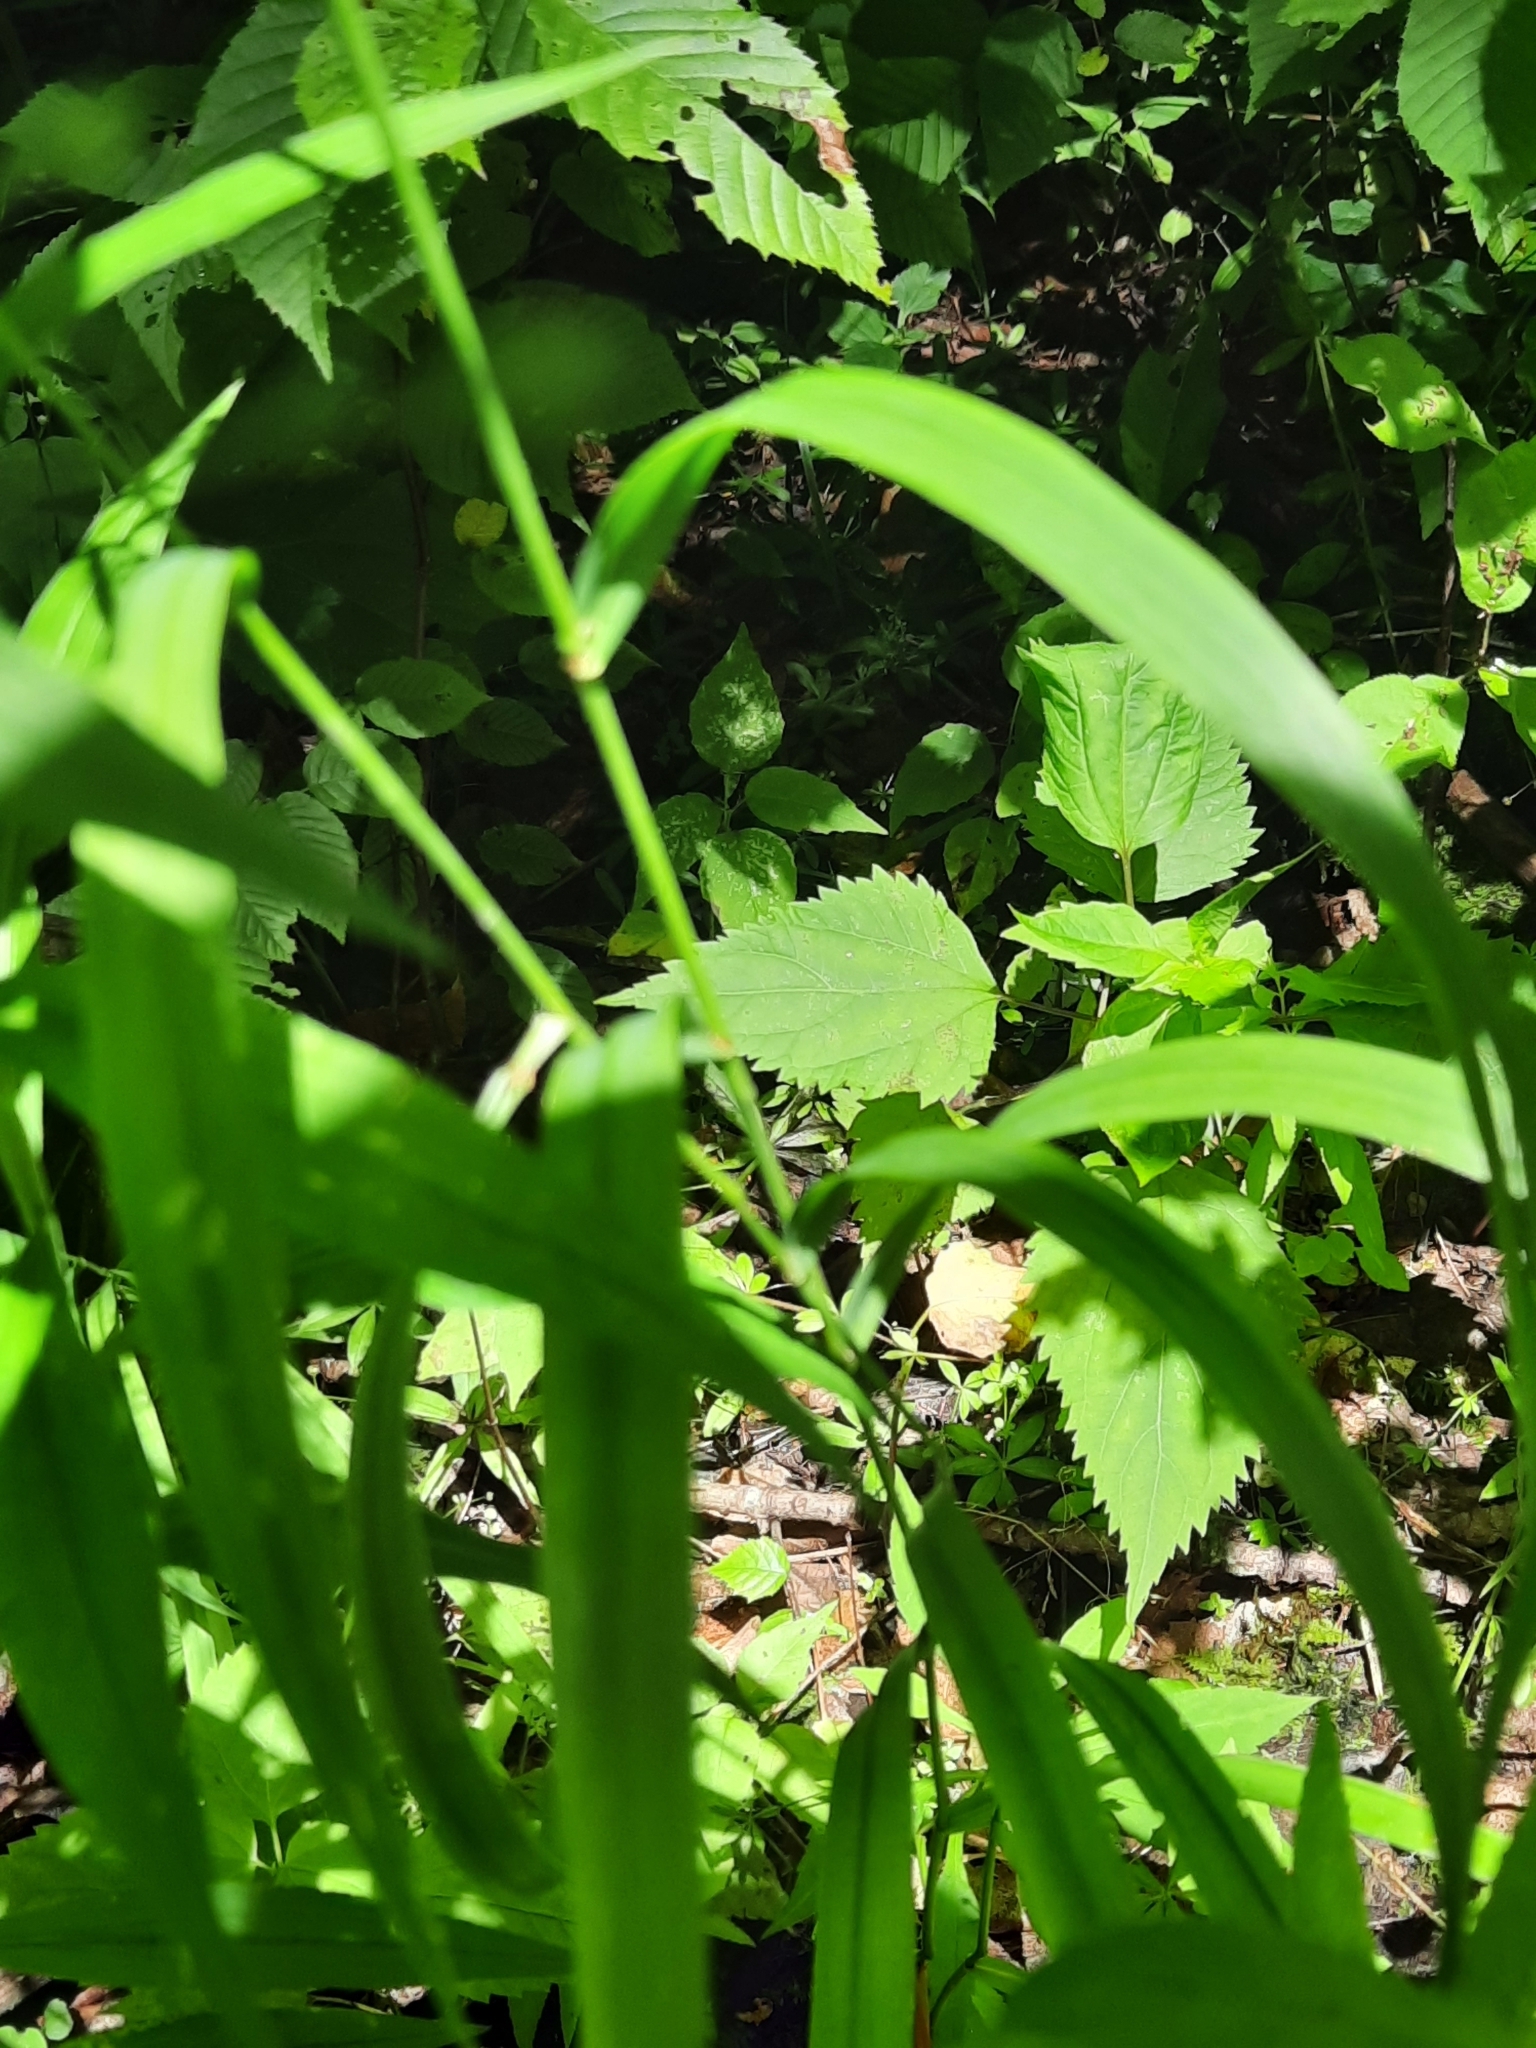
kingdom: Plantae
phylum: Tracheophyta
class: Liliopsida
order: Poales
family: Poaceae
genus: Cinna
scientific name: Cinna arundinacea
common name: Stout woodreed
